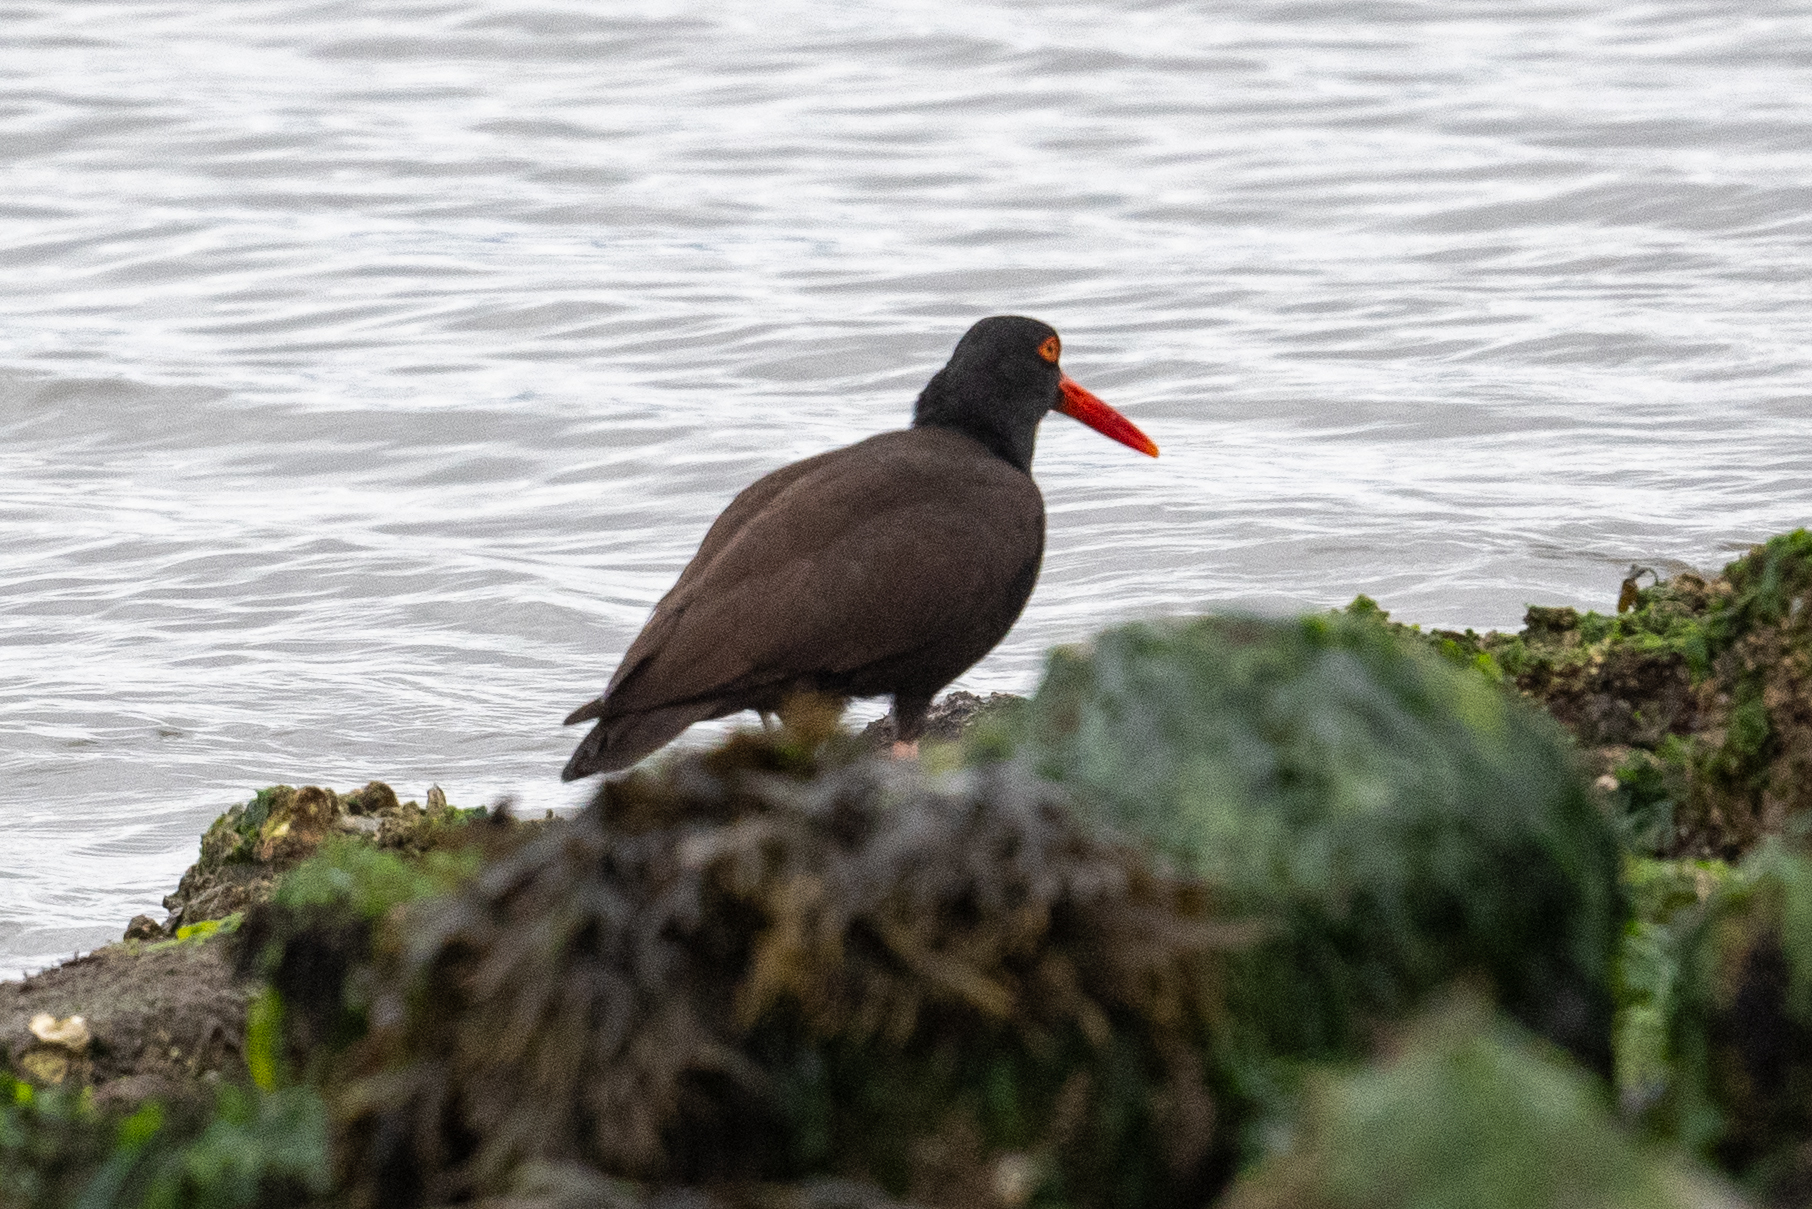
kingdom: Animalia
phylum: Chordata
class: Aves
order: Charadriiformes
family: Haematopodidae
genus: Haematopus
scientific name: Haematopus bachmani
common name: Black oystercatcher
